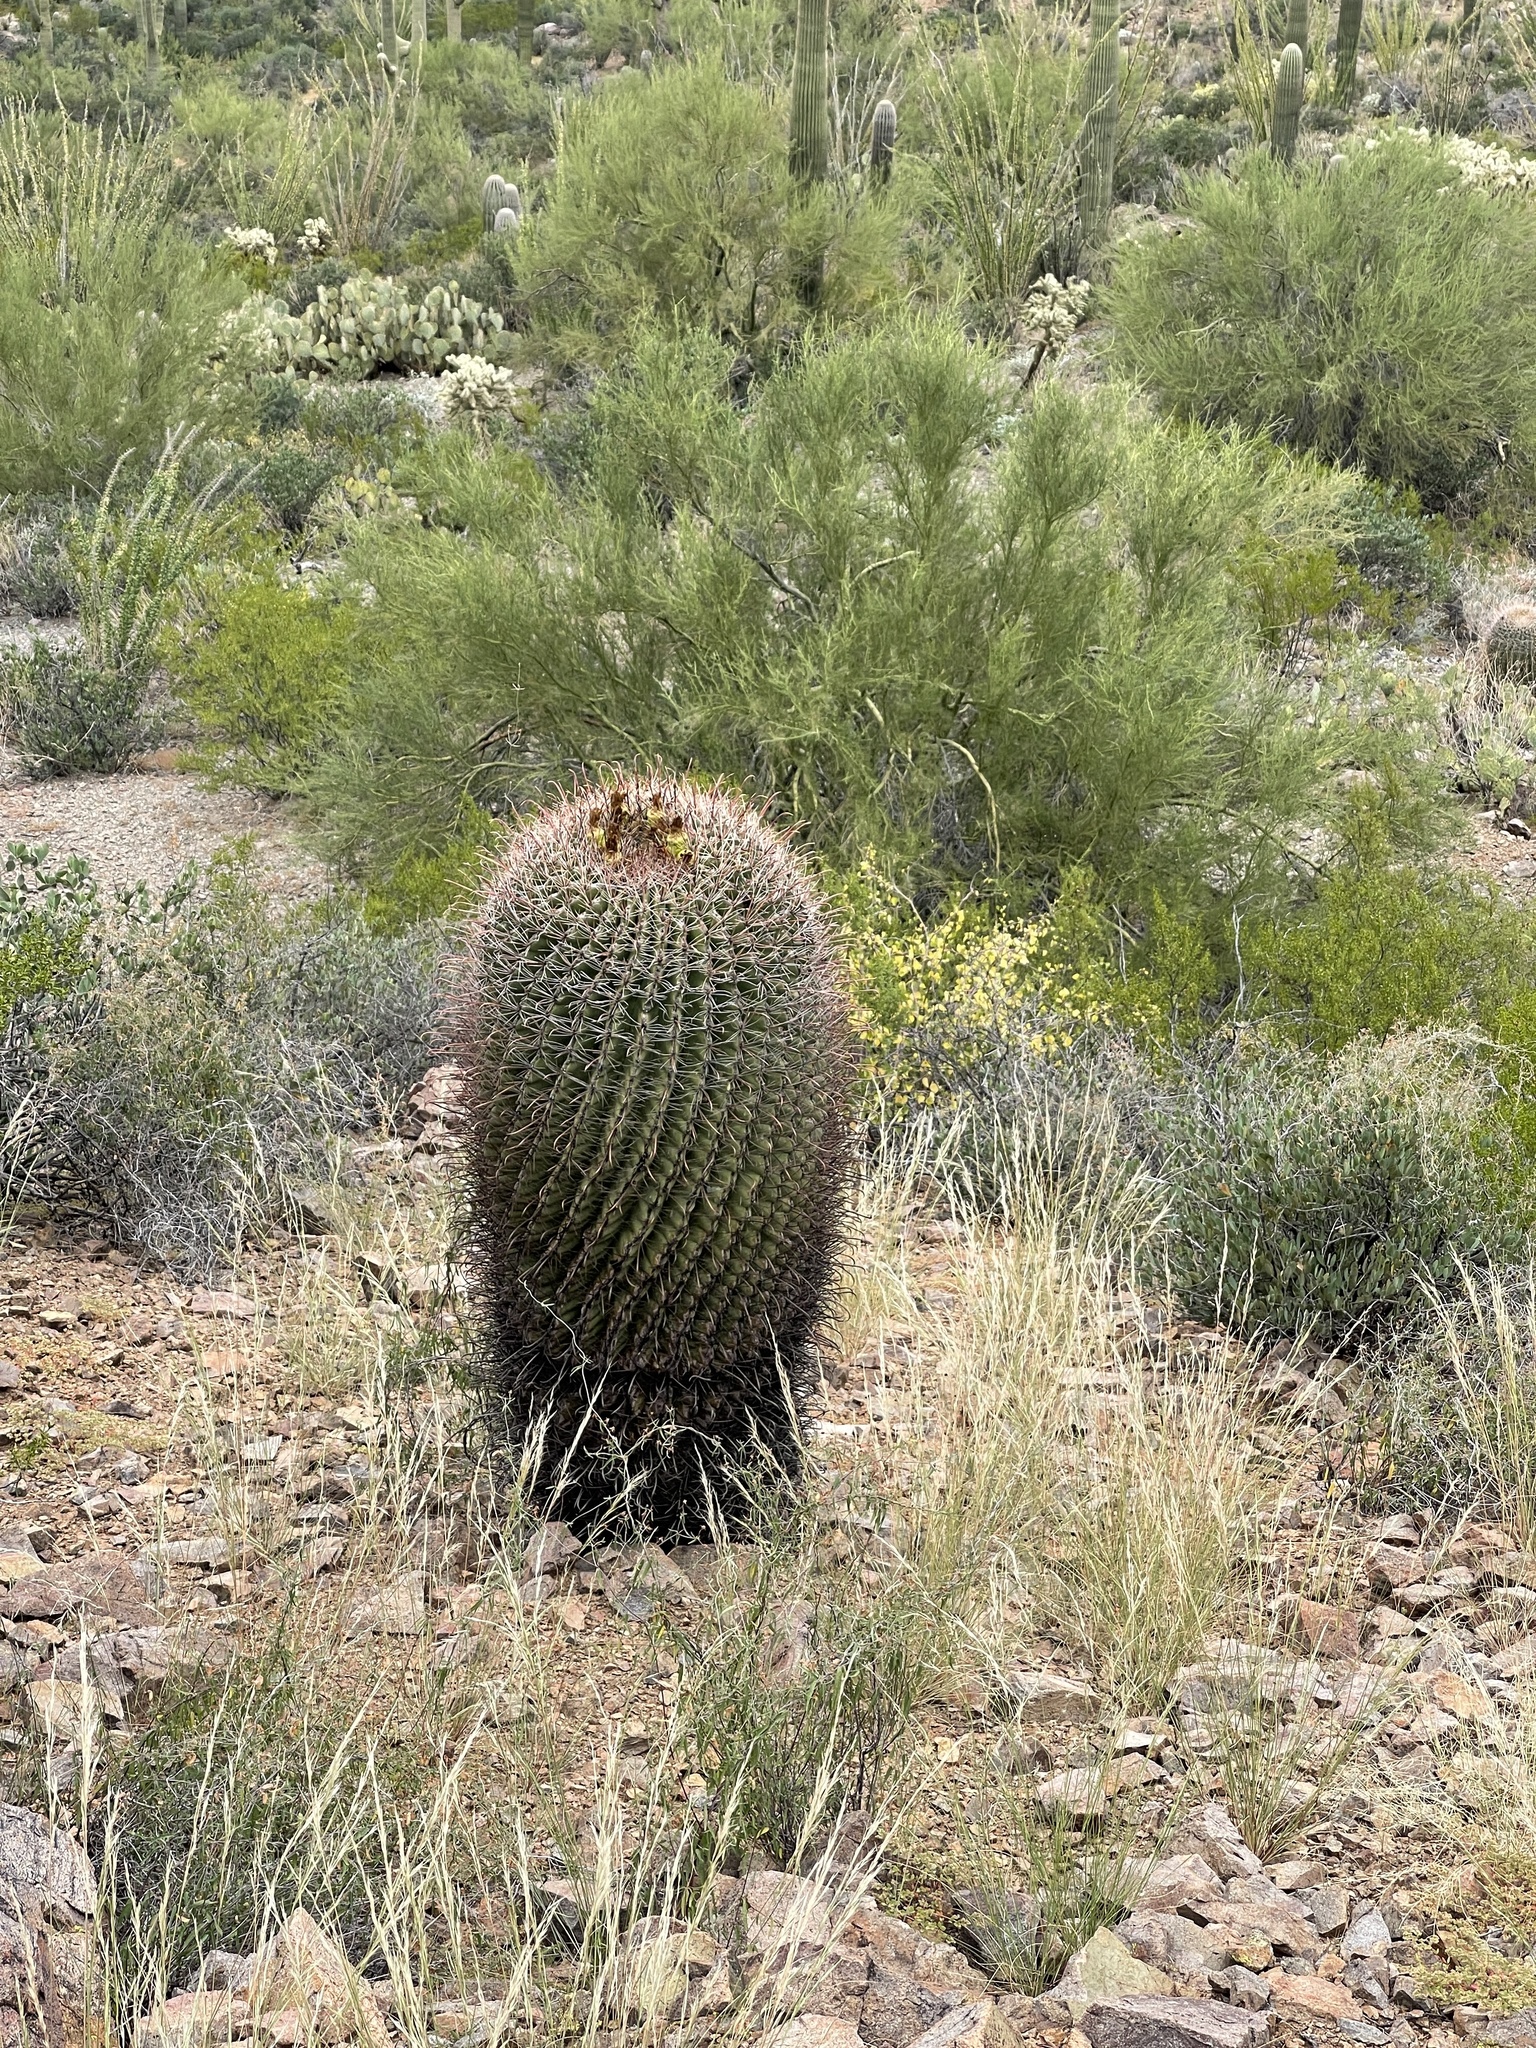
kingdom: Plantae
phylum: Tracheophyta
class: Magnoliopsida
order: Caryophyllales
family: Cactaceae
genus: Ferocactus
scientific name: Ferocactus wislizeni
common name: Candy barrel cactus
